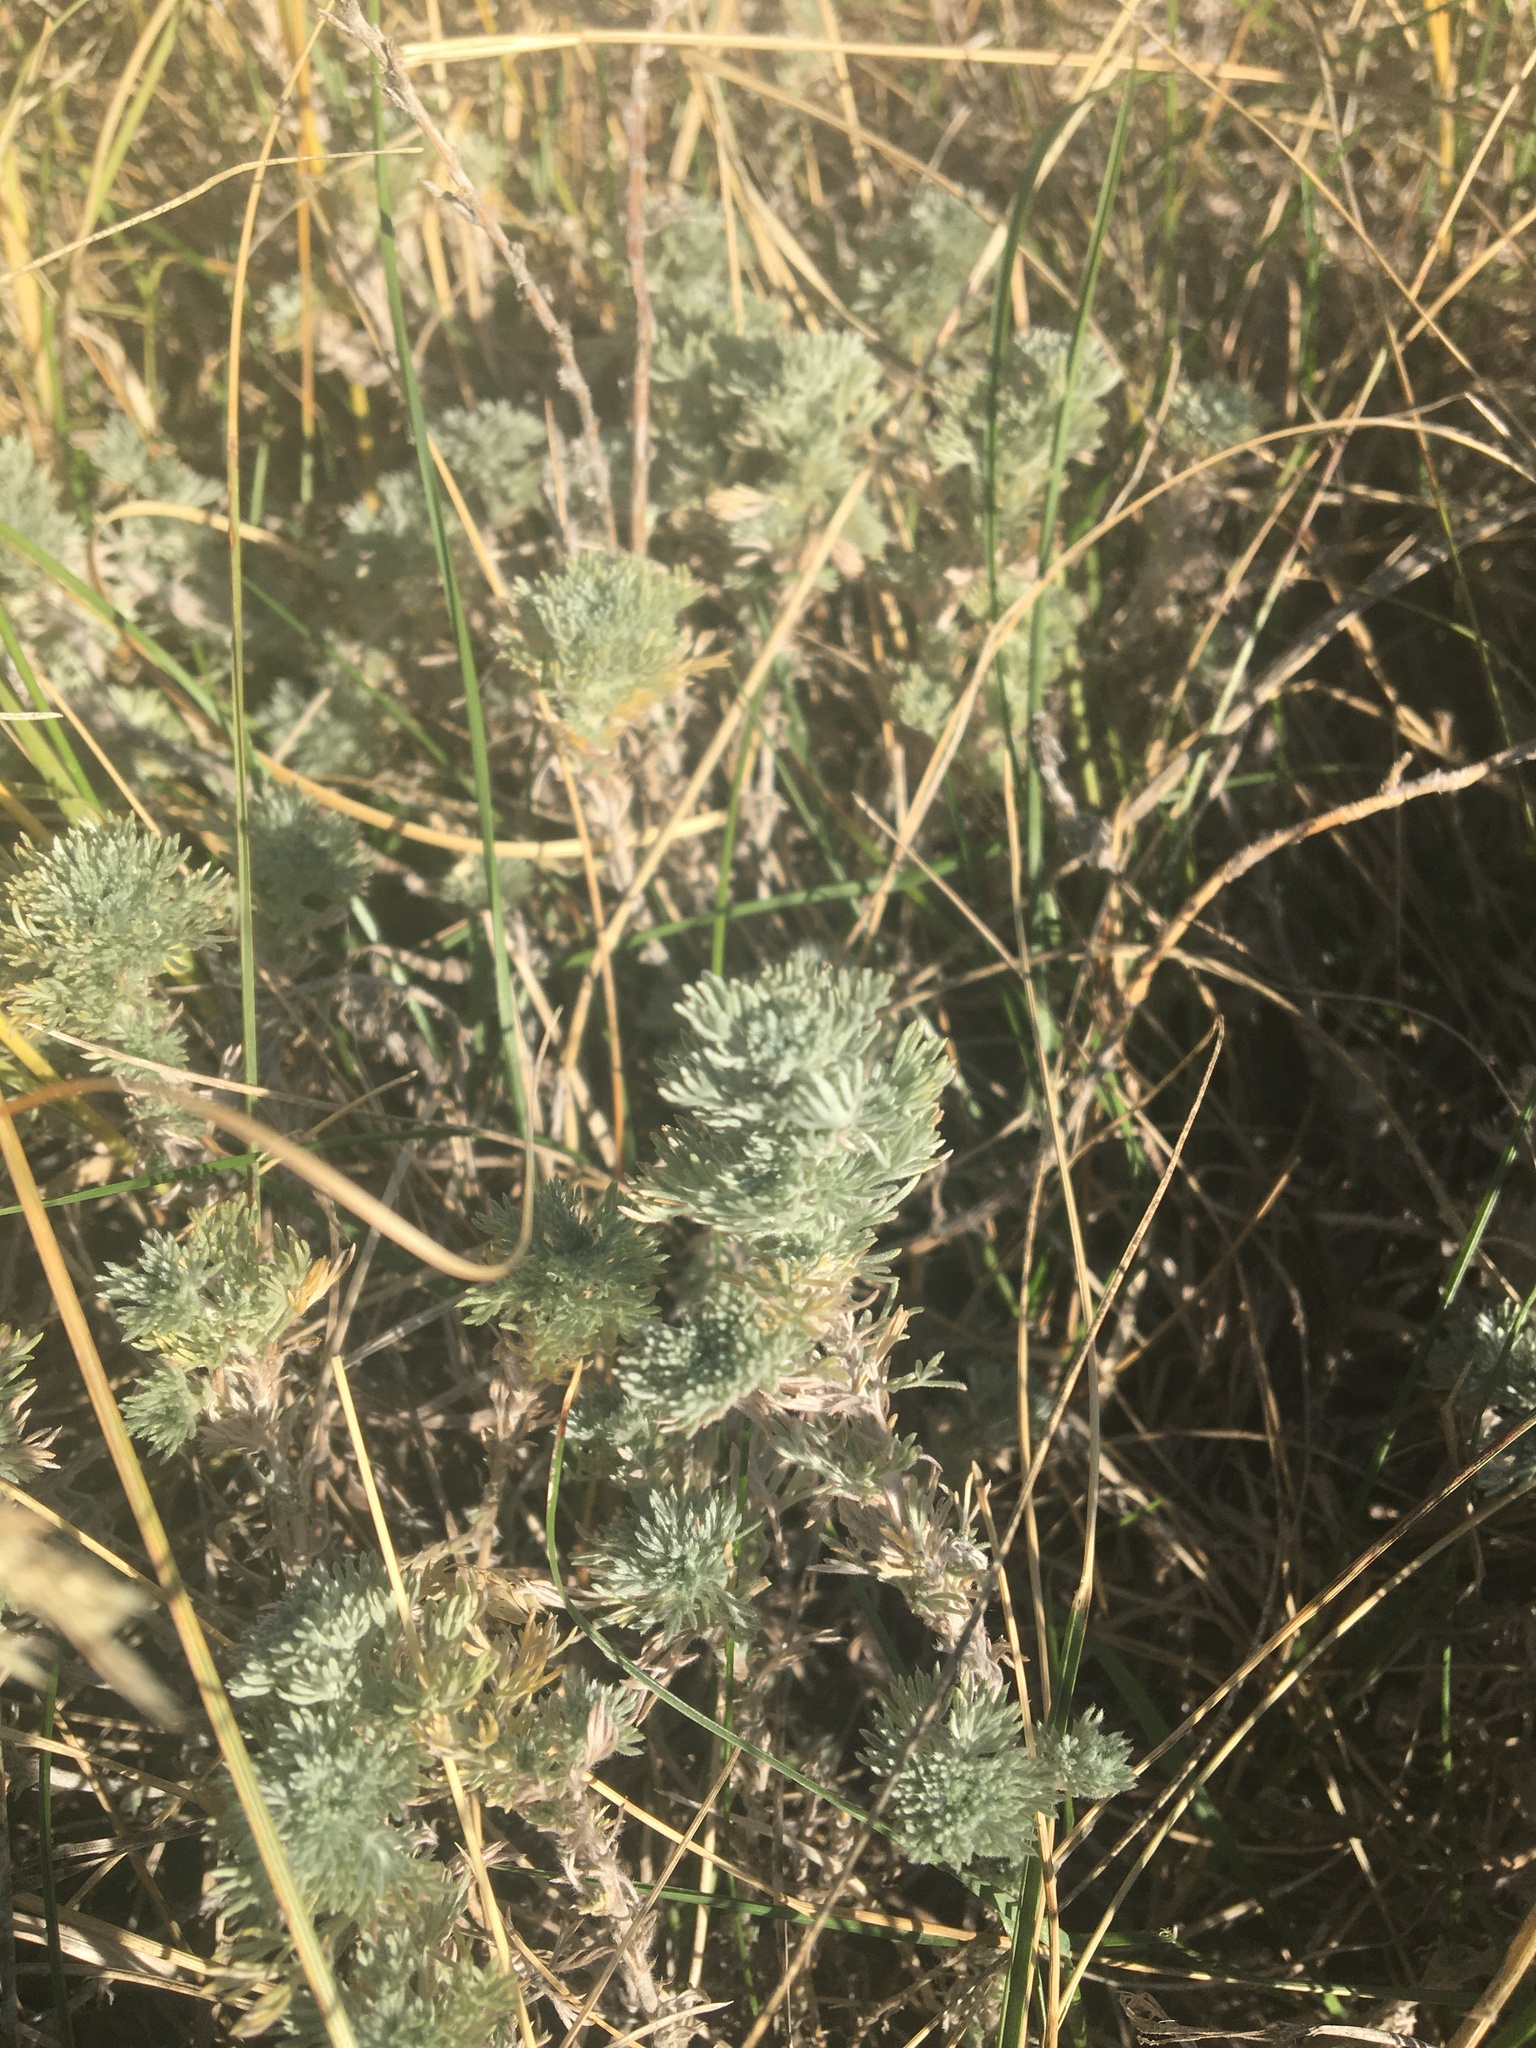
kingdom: Plantae
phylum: Tracheophyta
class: Magnoliopsida
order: Asterales
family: Asteraceae
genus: Artemisia
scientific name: Artemisia frigida
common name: Prairie sagewort
